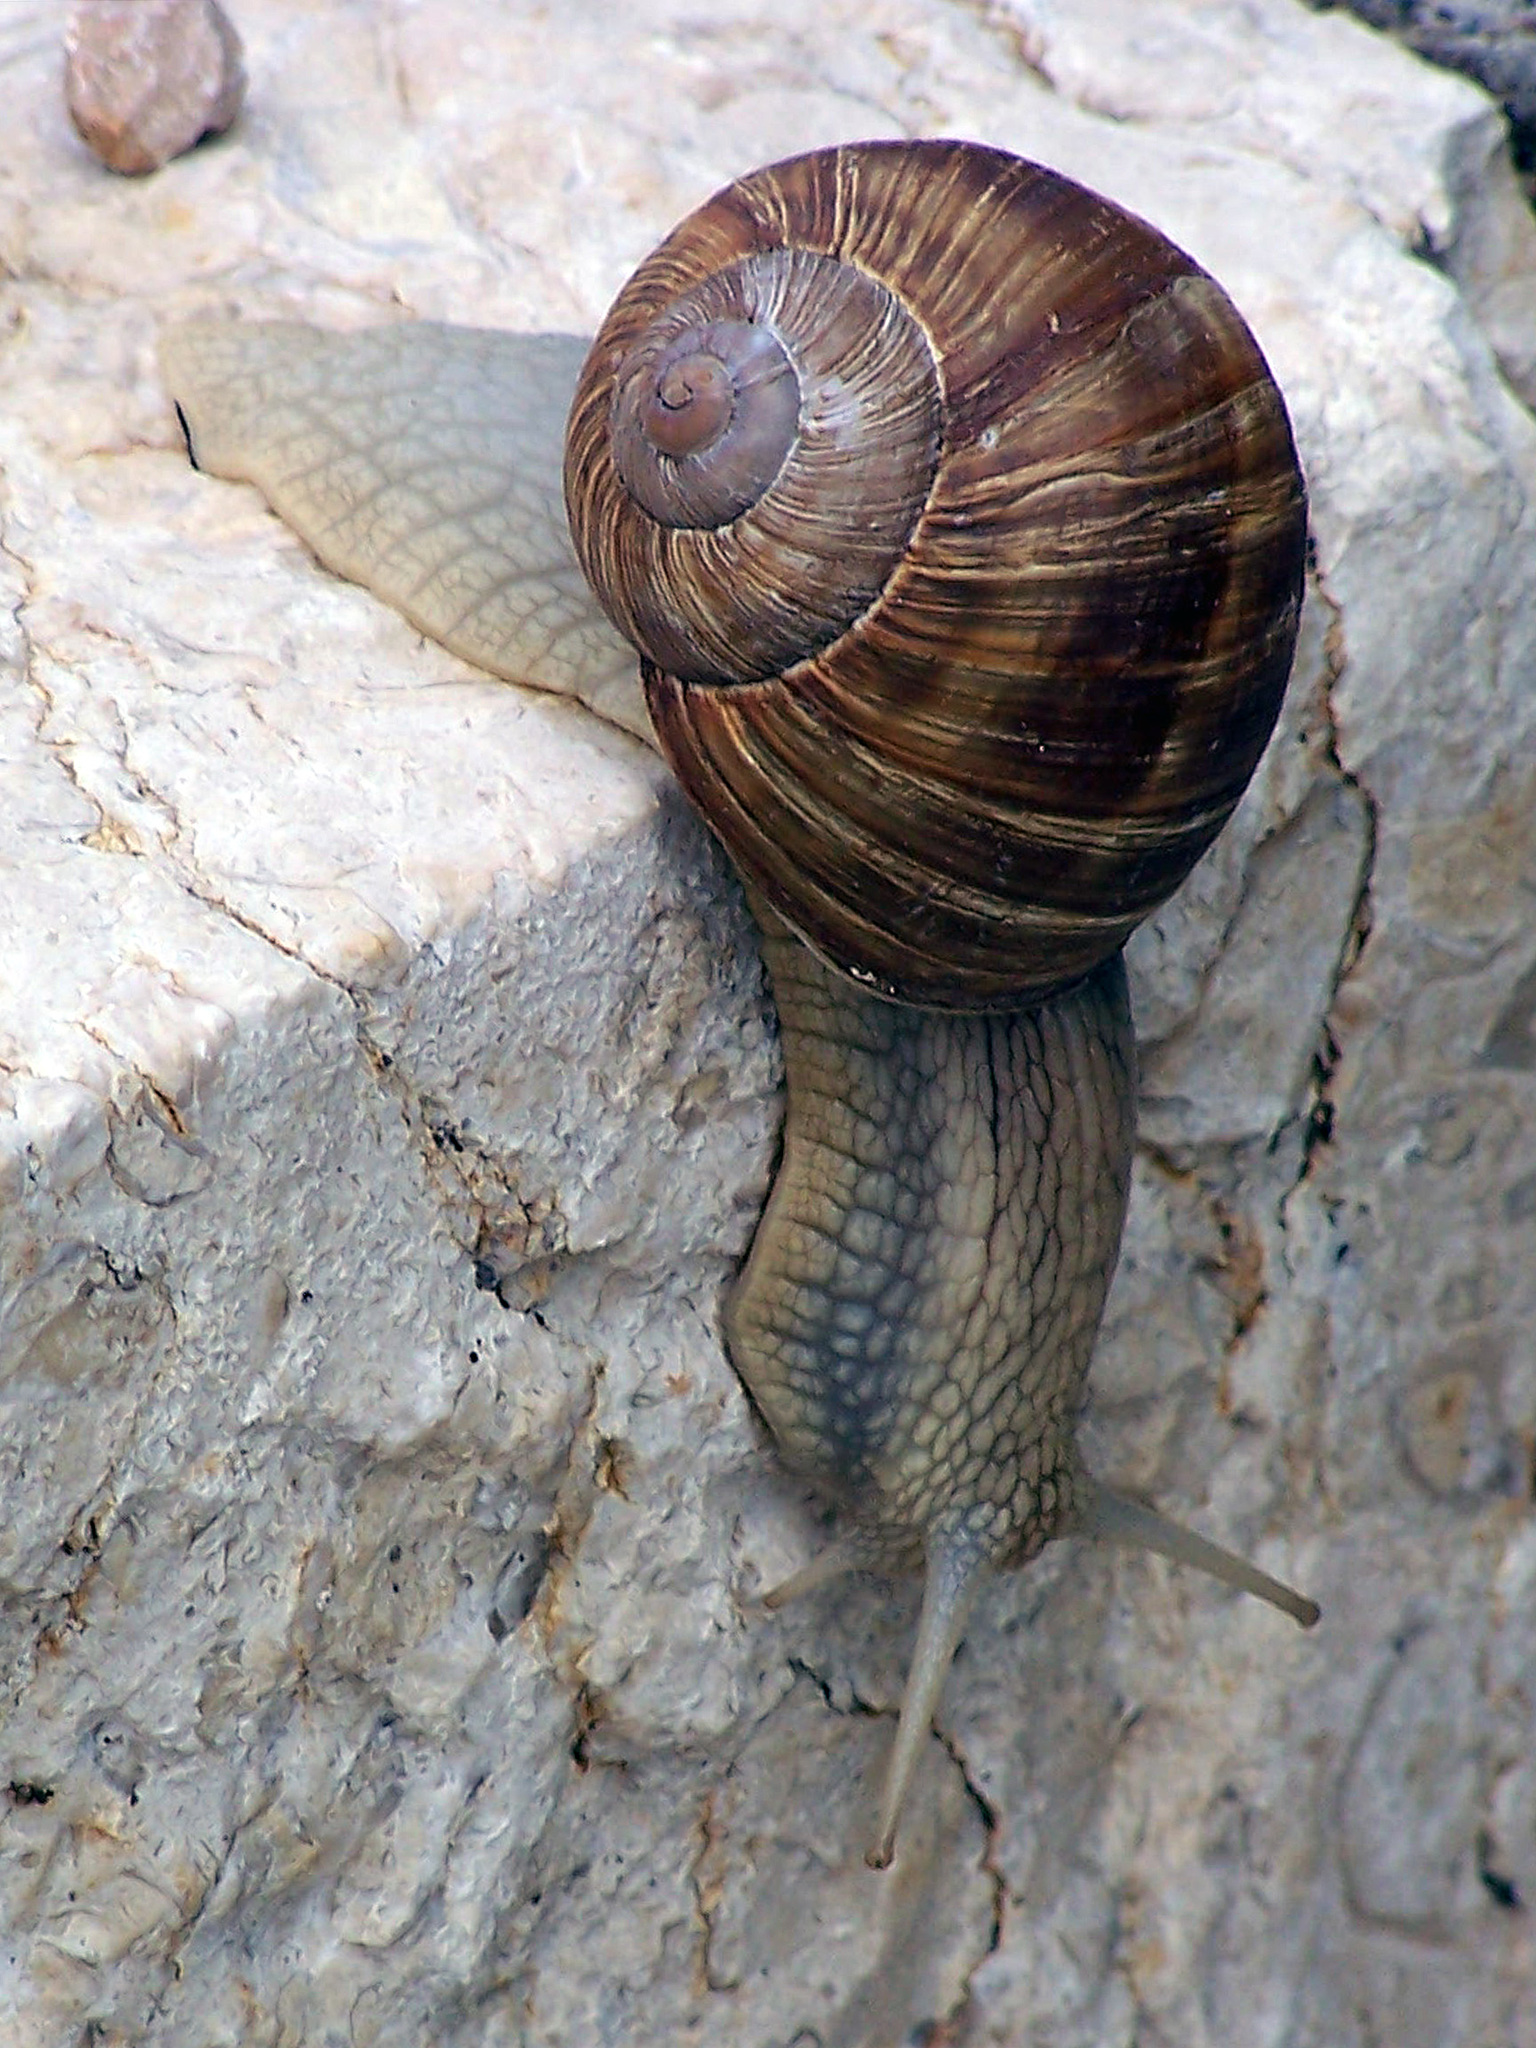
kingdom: Animalia
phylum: Mollusca
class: Gastropoda
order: Stylommatophora
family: Helicidae
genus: Helix
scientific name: Helix pomatia
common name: Roman snail
